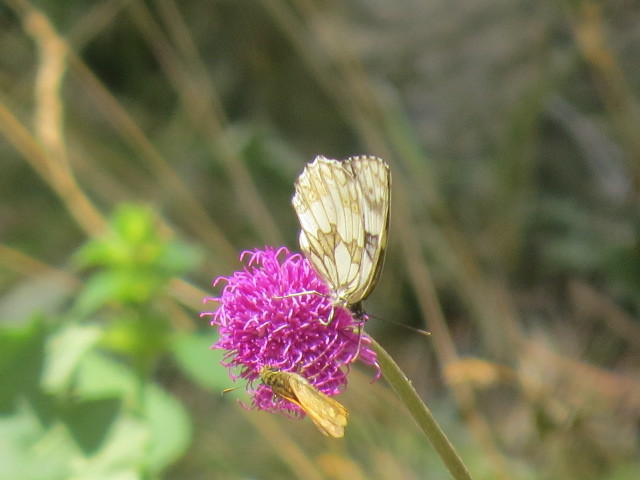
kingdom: Animalia
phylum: Arthropoda
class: Insecta
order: Lepidoptera
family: Nymphalidae
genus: Melanargia
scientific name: Melanargia galathea
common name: Marbled white
